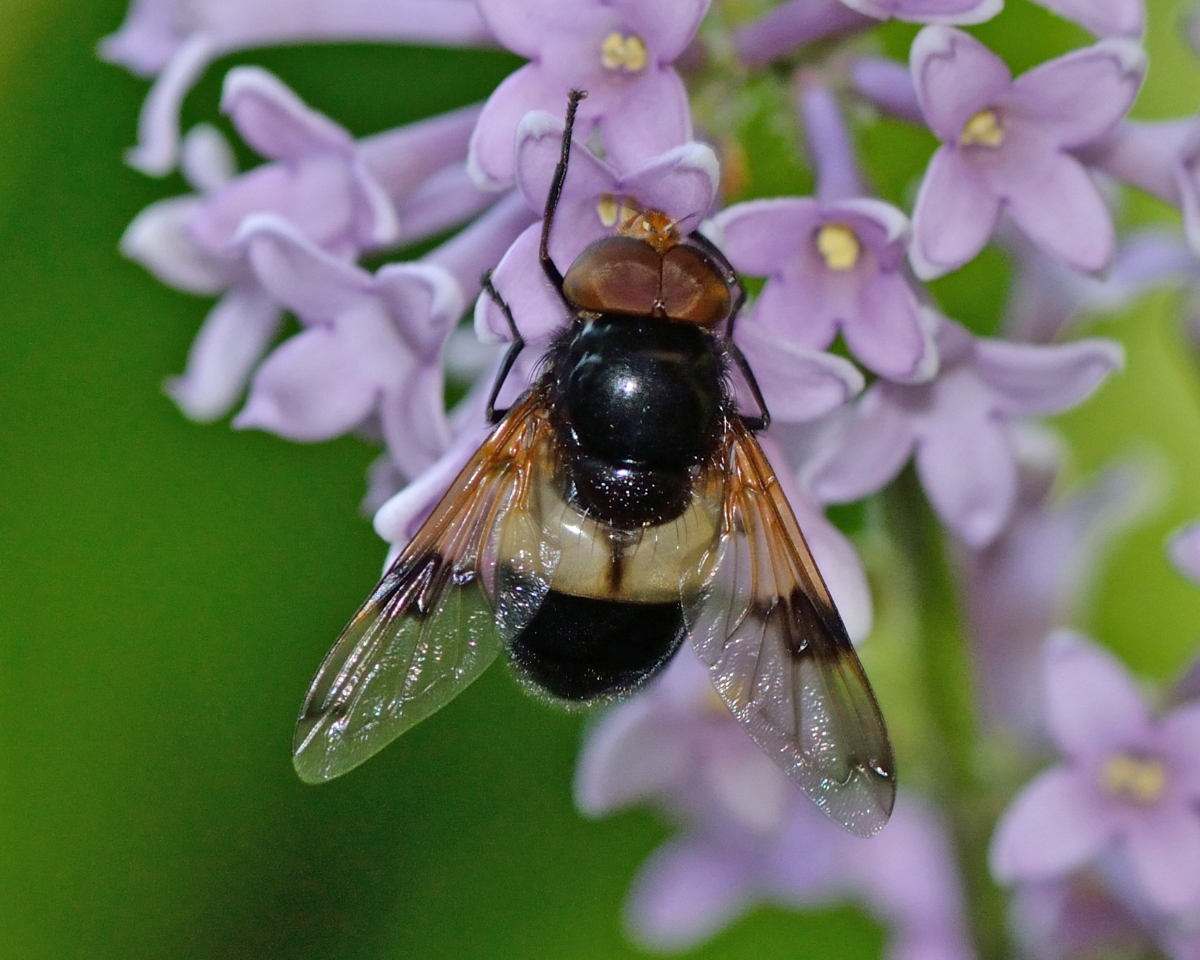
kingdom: Animalia
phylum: Arthropoda
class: Insecta
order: Diptera
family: Syrphidae
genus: Volucella
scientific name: Volucella pellucens
